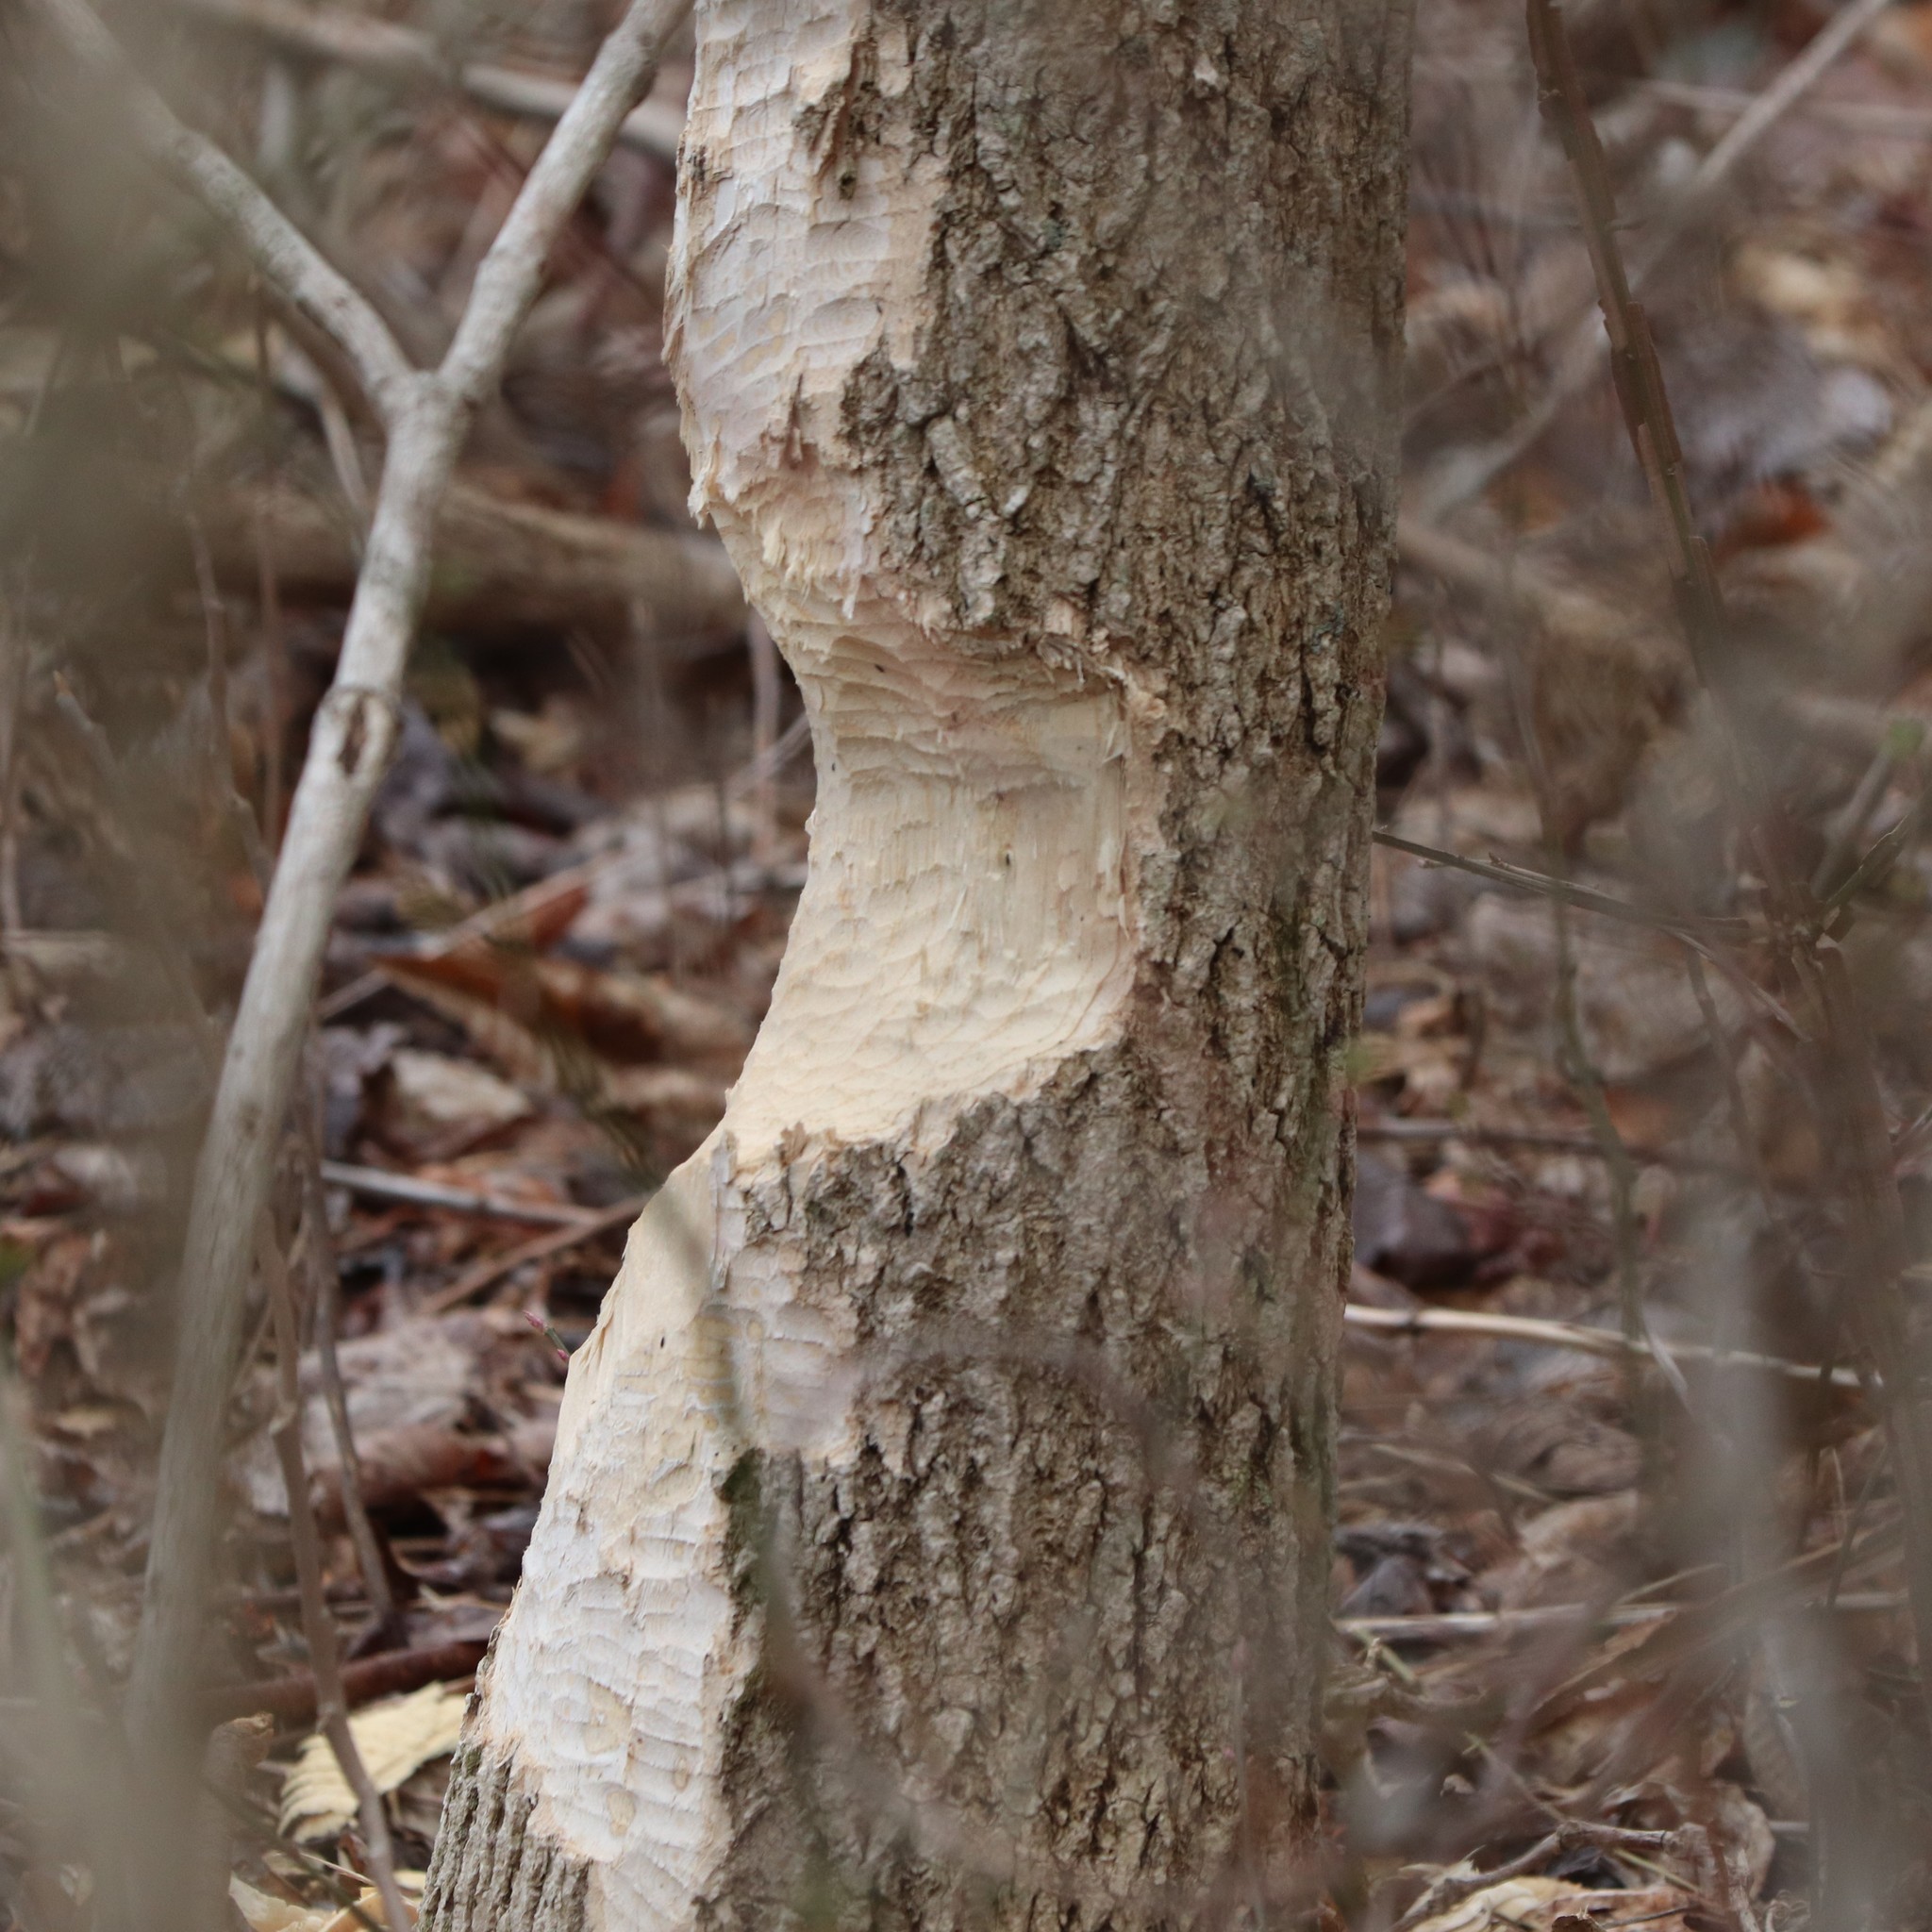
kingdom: Animalia
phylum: Chordata
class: Mammalia
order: Rodentia
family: Castoridae
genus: Castor
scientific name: Castor canadensis
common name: American beaver
